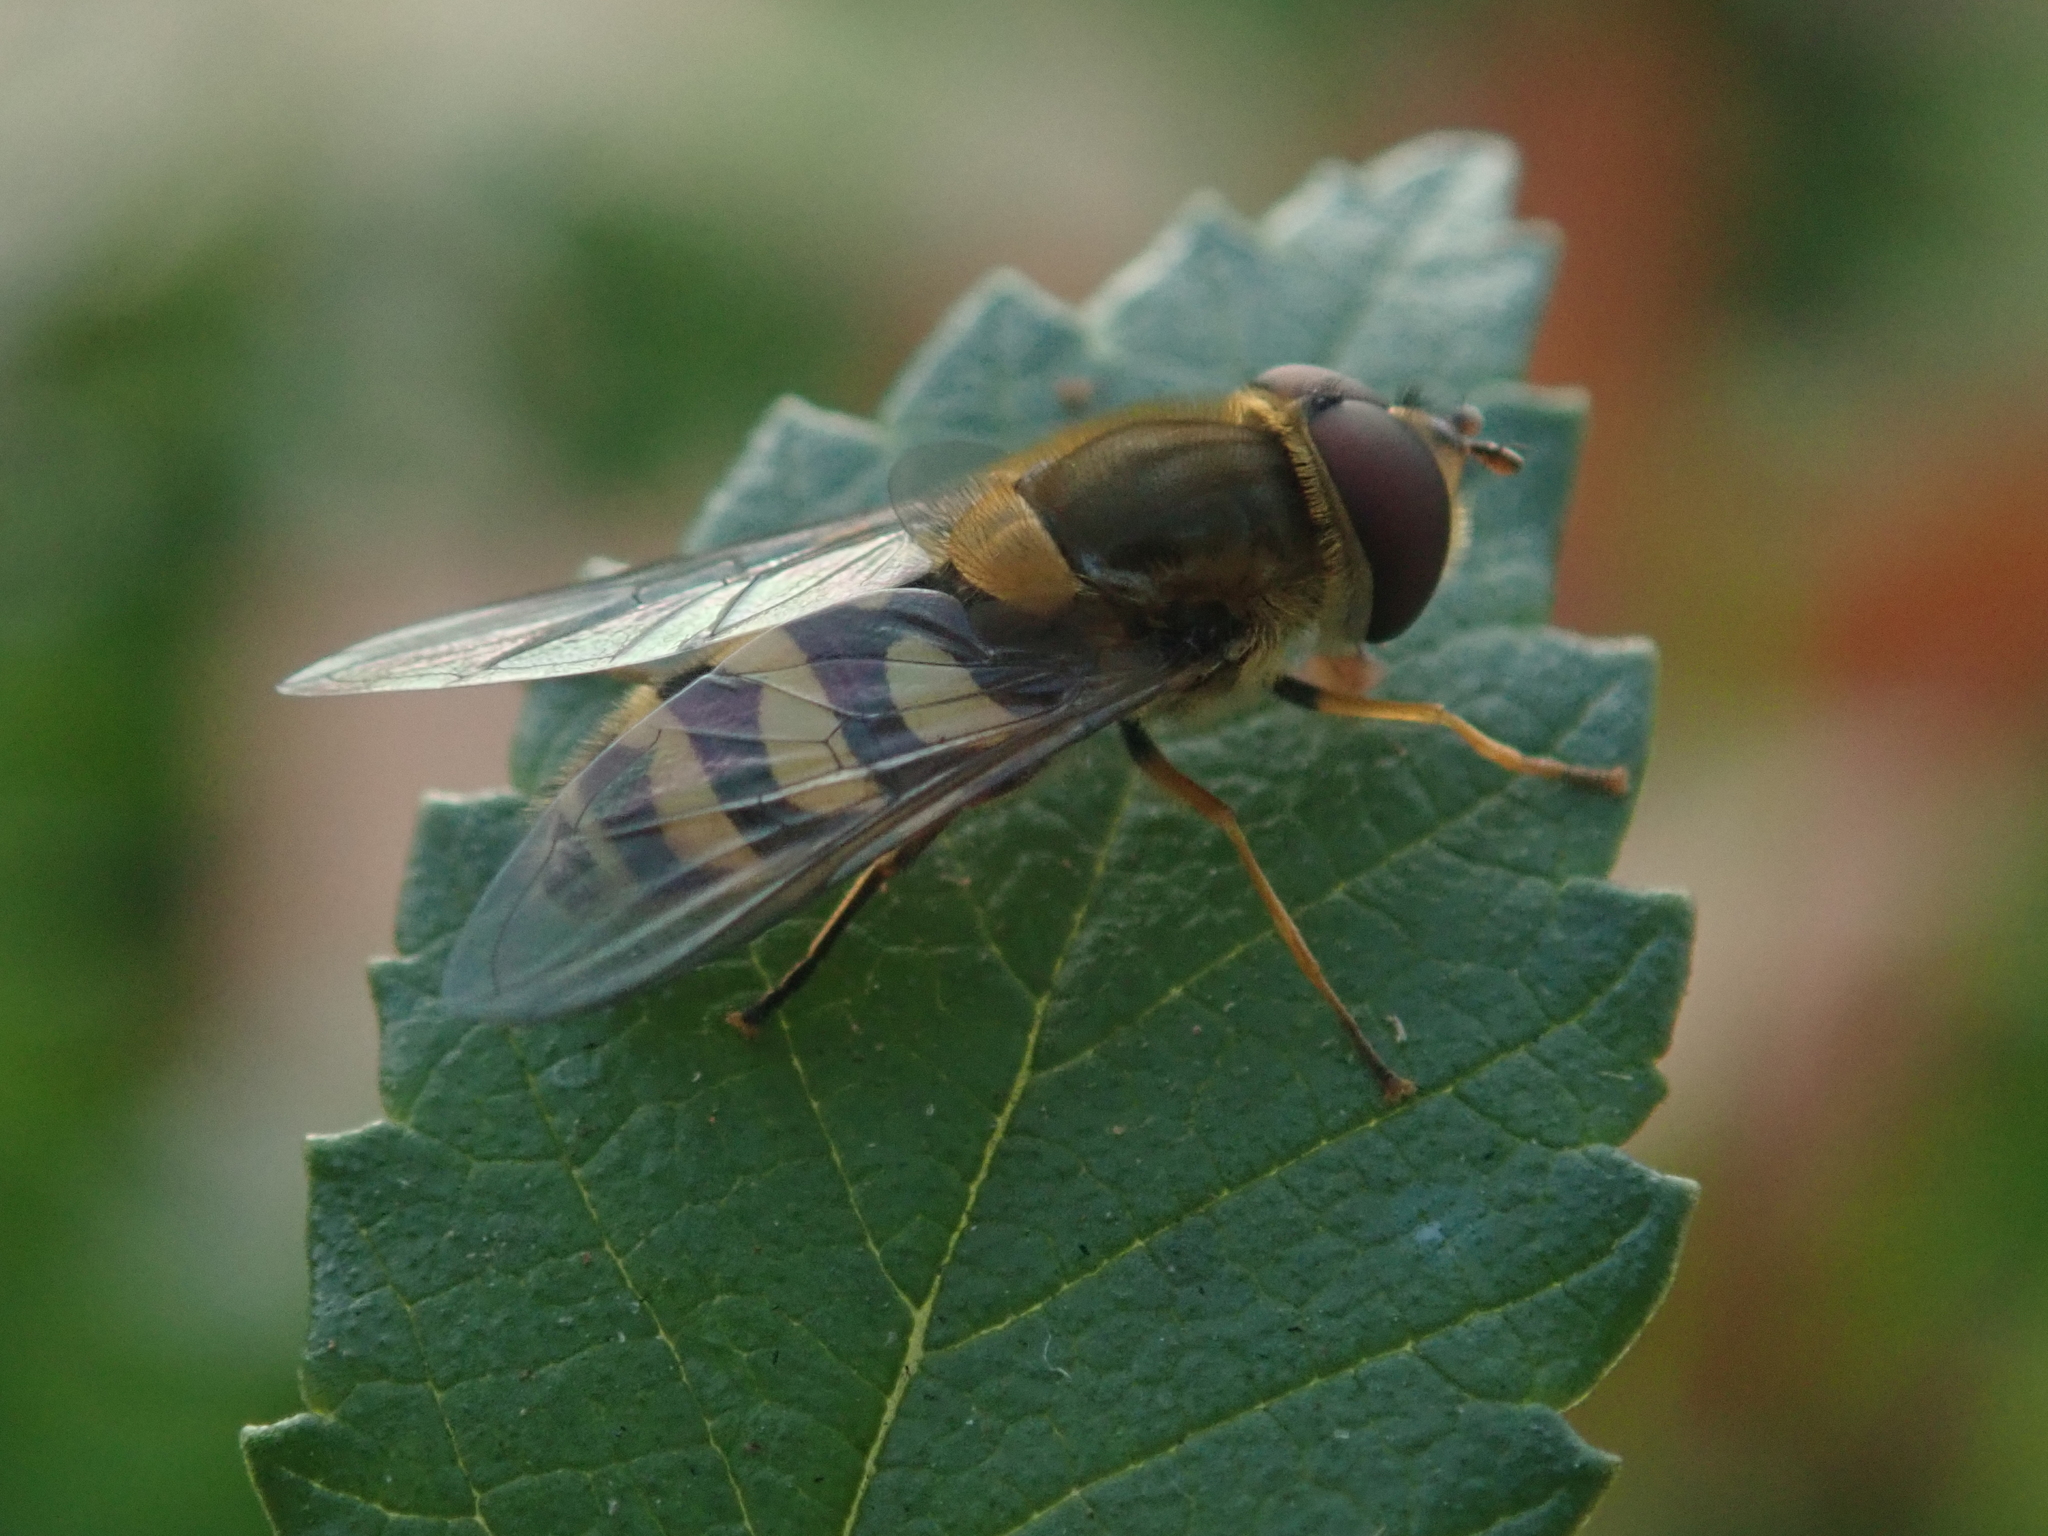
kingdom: Animalia
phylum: Arthropoda
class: Insecta
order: Diptera
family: Syrphidae
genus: Syrphus
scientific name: Syrphus
